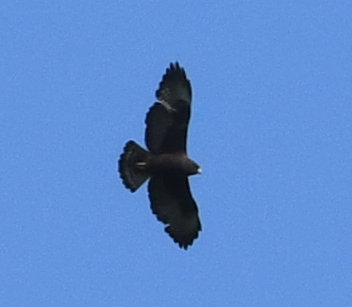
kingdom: Animalia
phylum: Chordata
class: Aves
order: Accipitriformes
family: Accipitridae
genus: Buteo
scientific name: Buteo brachyurus
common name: Short-tailed hawk
